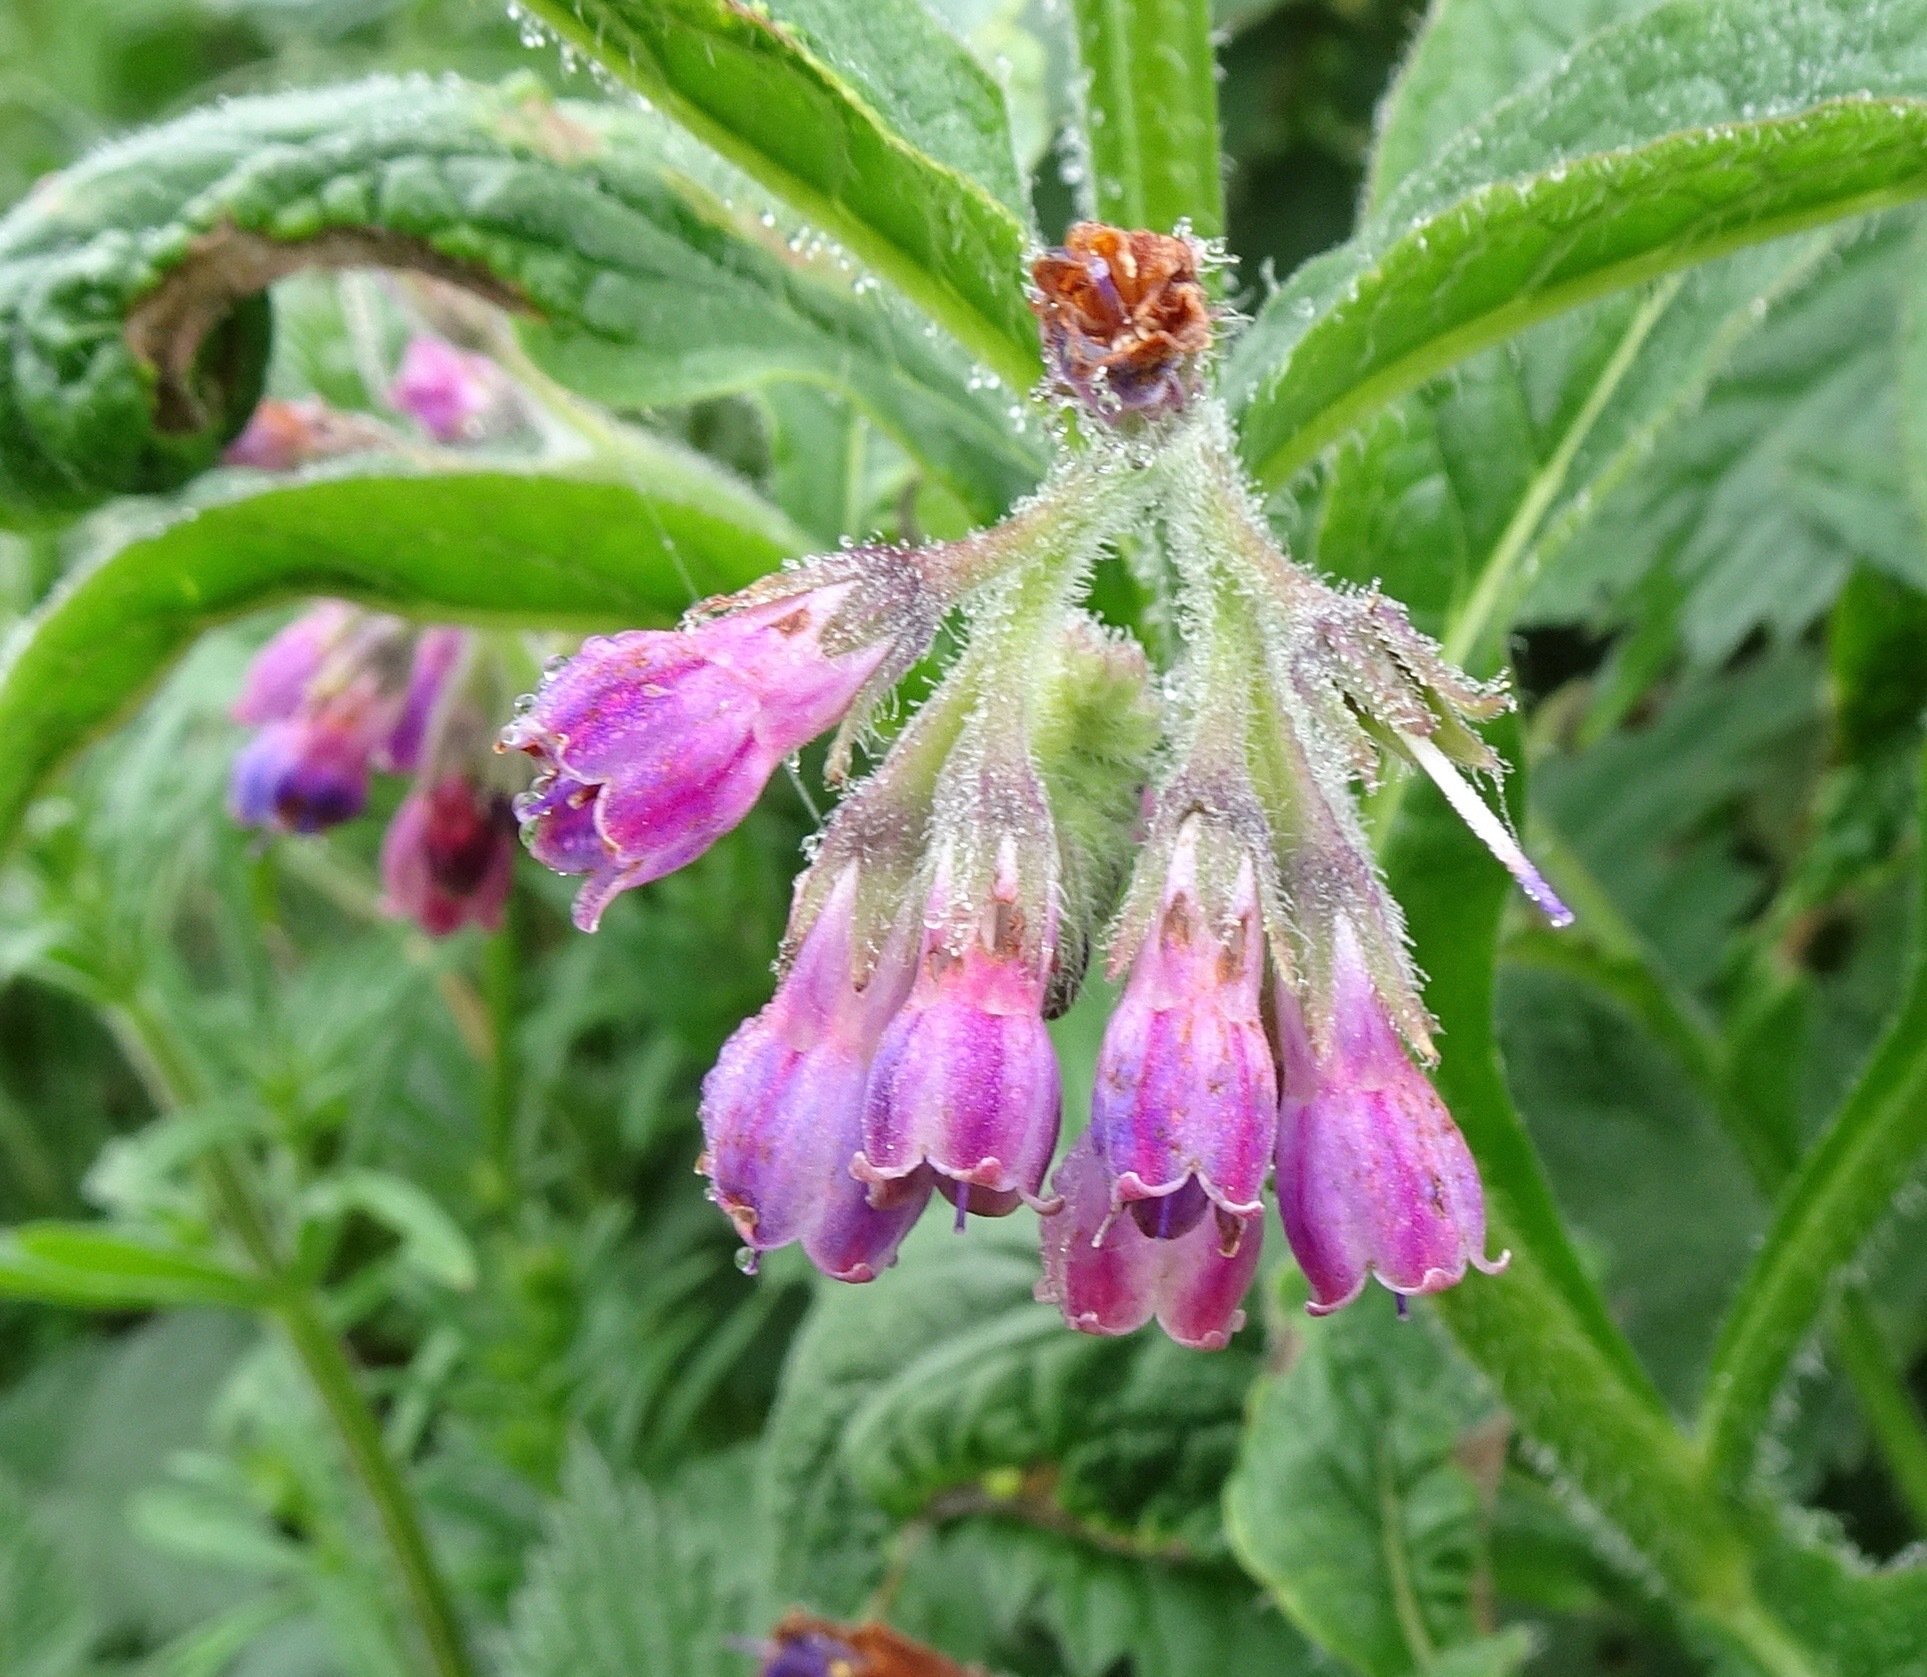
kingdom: Plantae
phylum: Tracheophyta
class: Magnoliopsida
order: Boraginales
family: Boraginaceae
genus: Symphytum
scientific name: Symphytum uplandicum
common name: Russian comfrey
